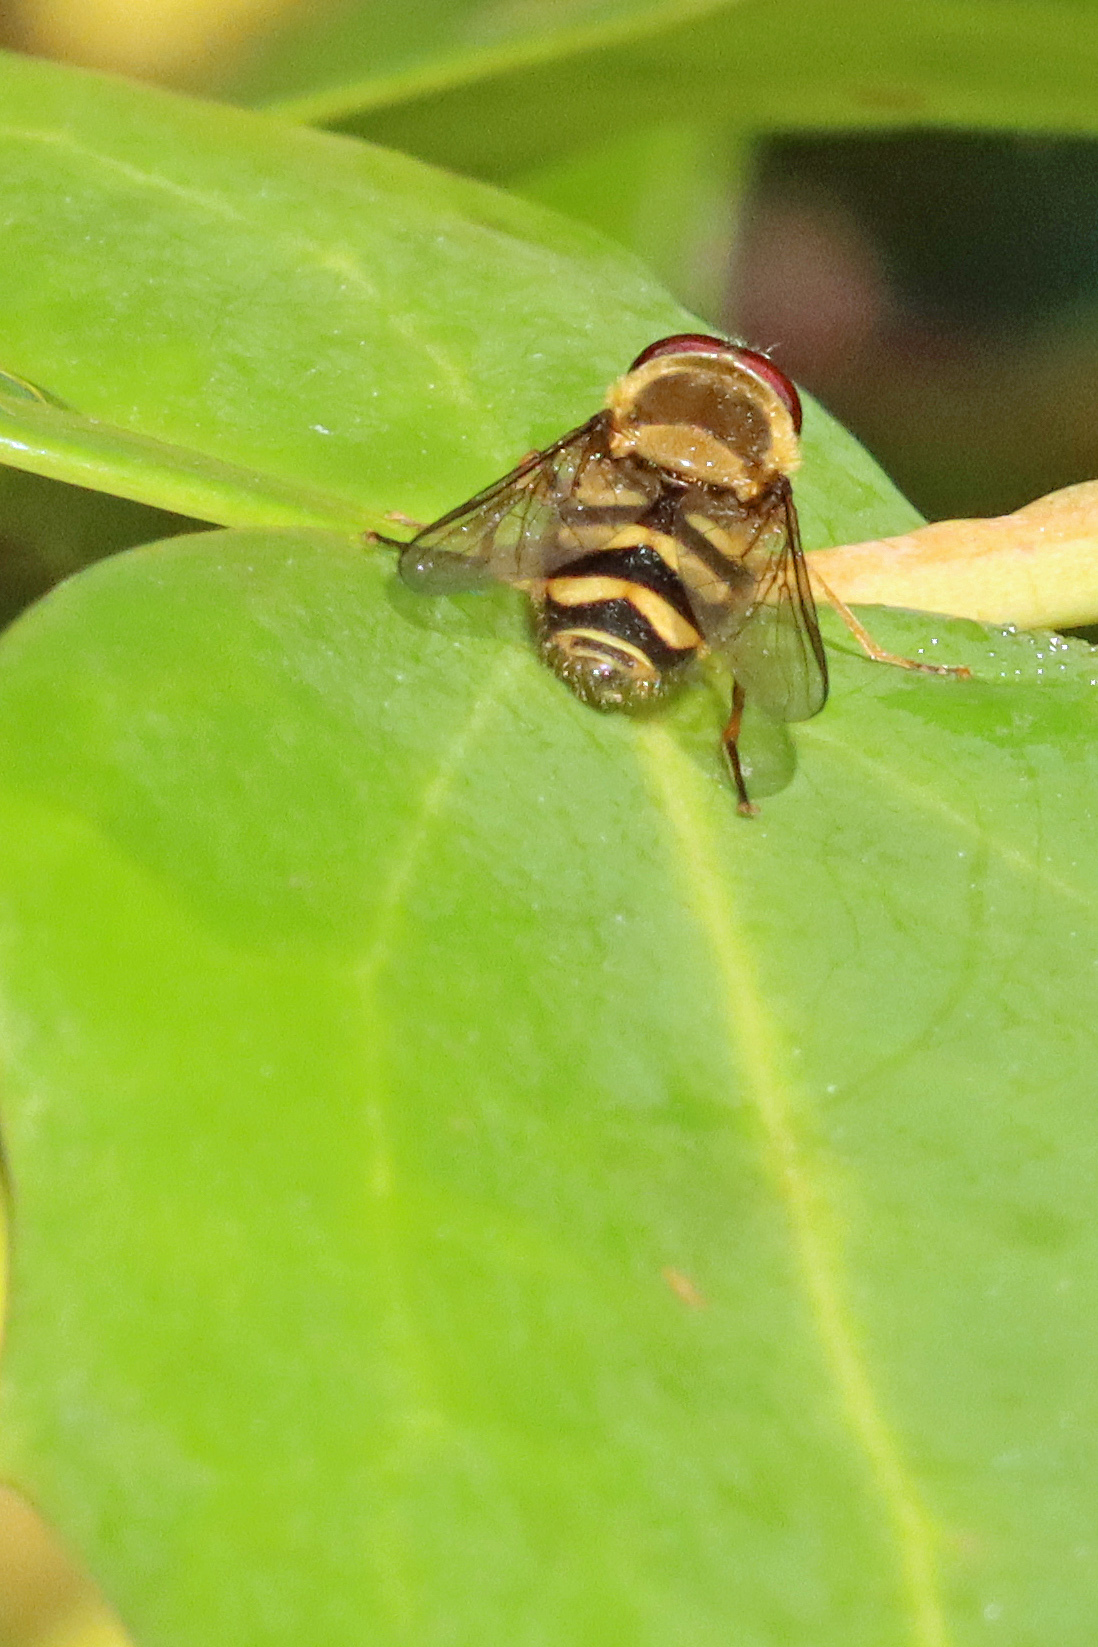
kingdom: Animalia
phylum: Arthropoda
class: Insecta
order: Diptera
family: Syrphidae
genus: Syrphus
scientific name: Syrphus
